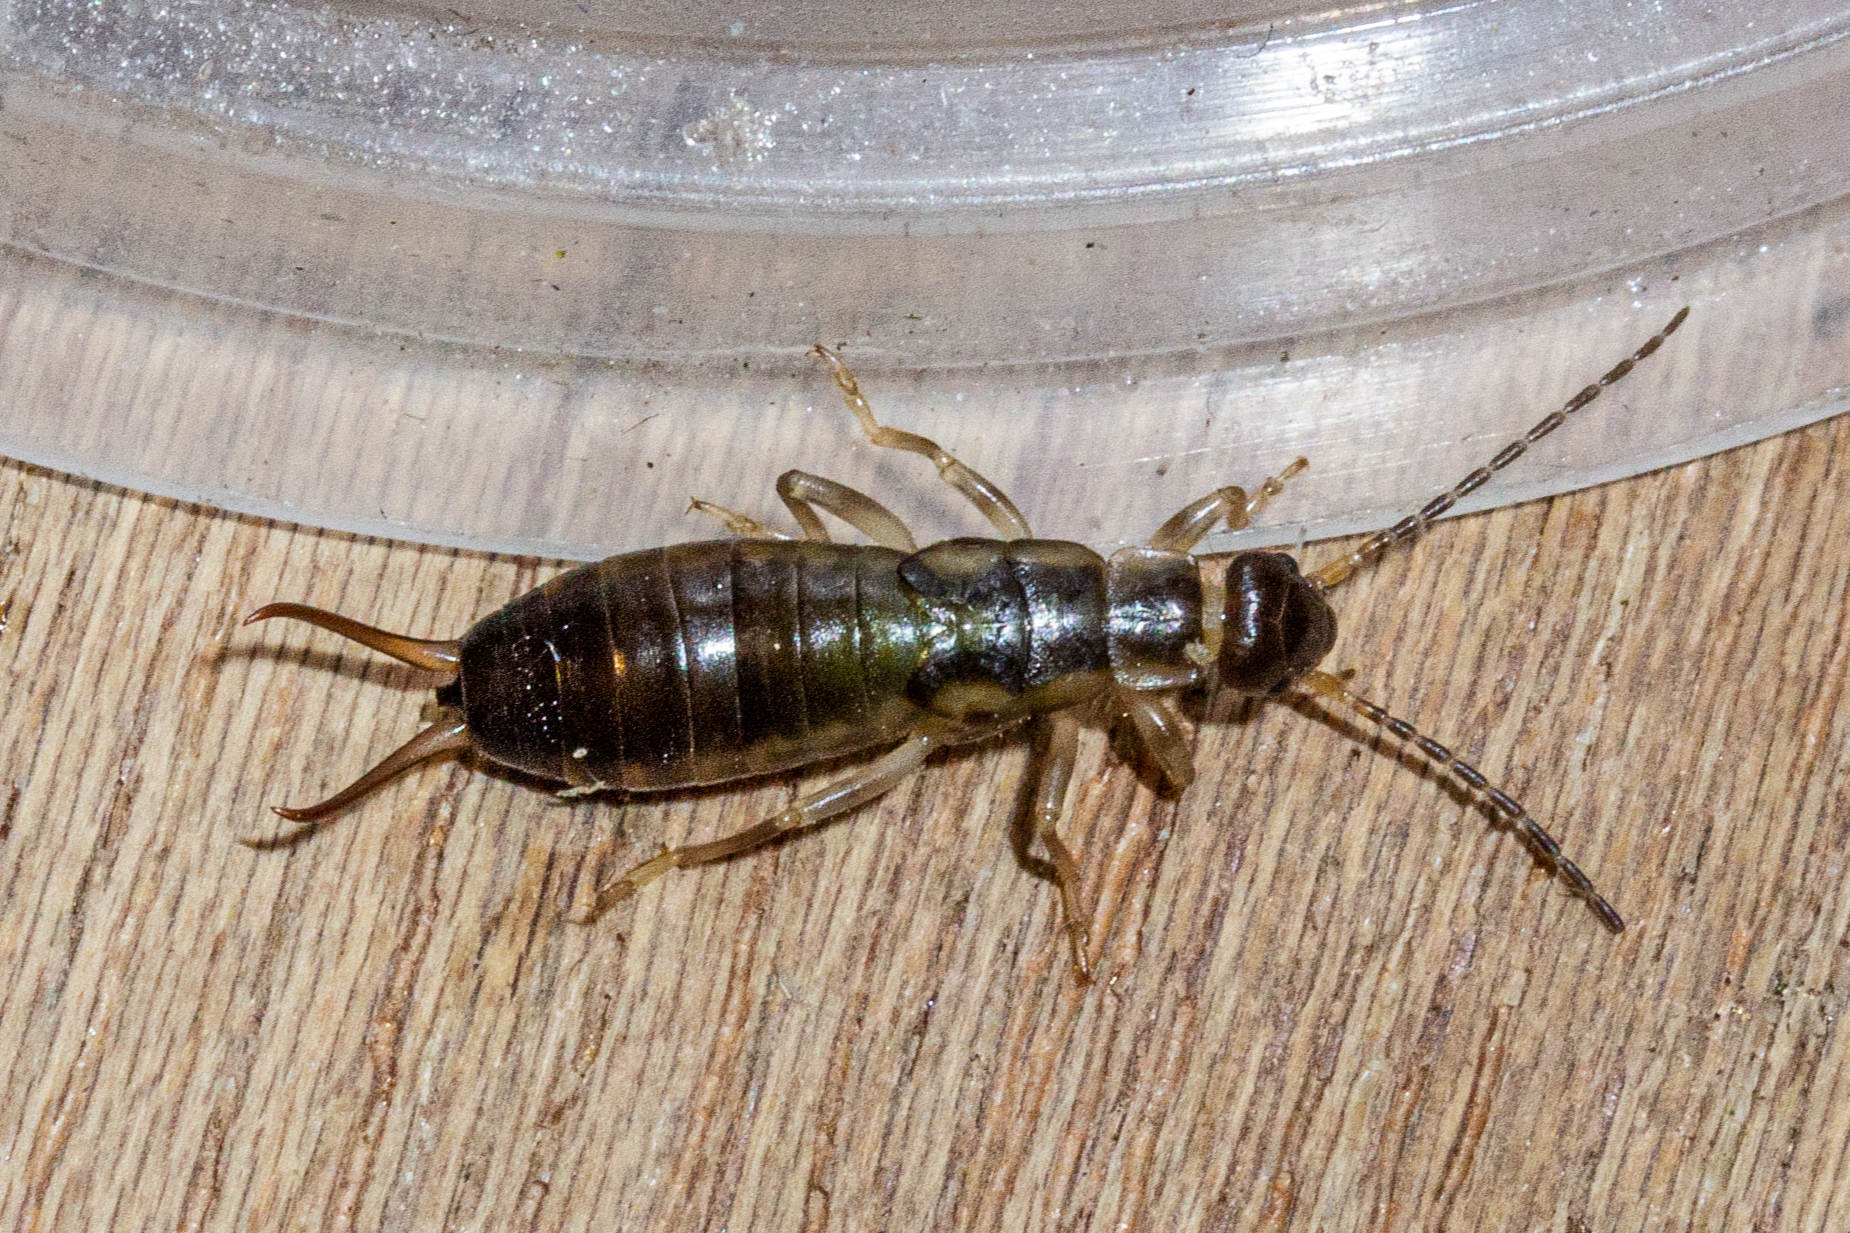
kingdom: Animalia
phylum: Arthropoda
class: Insecta
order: Dermaptera
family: Forficulidae
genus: Forficula
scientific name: Forficula dentata
